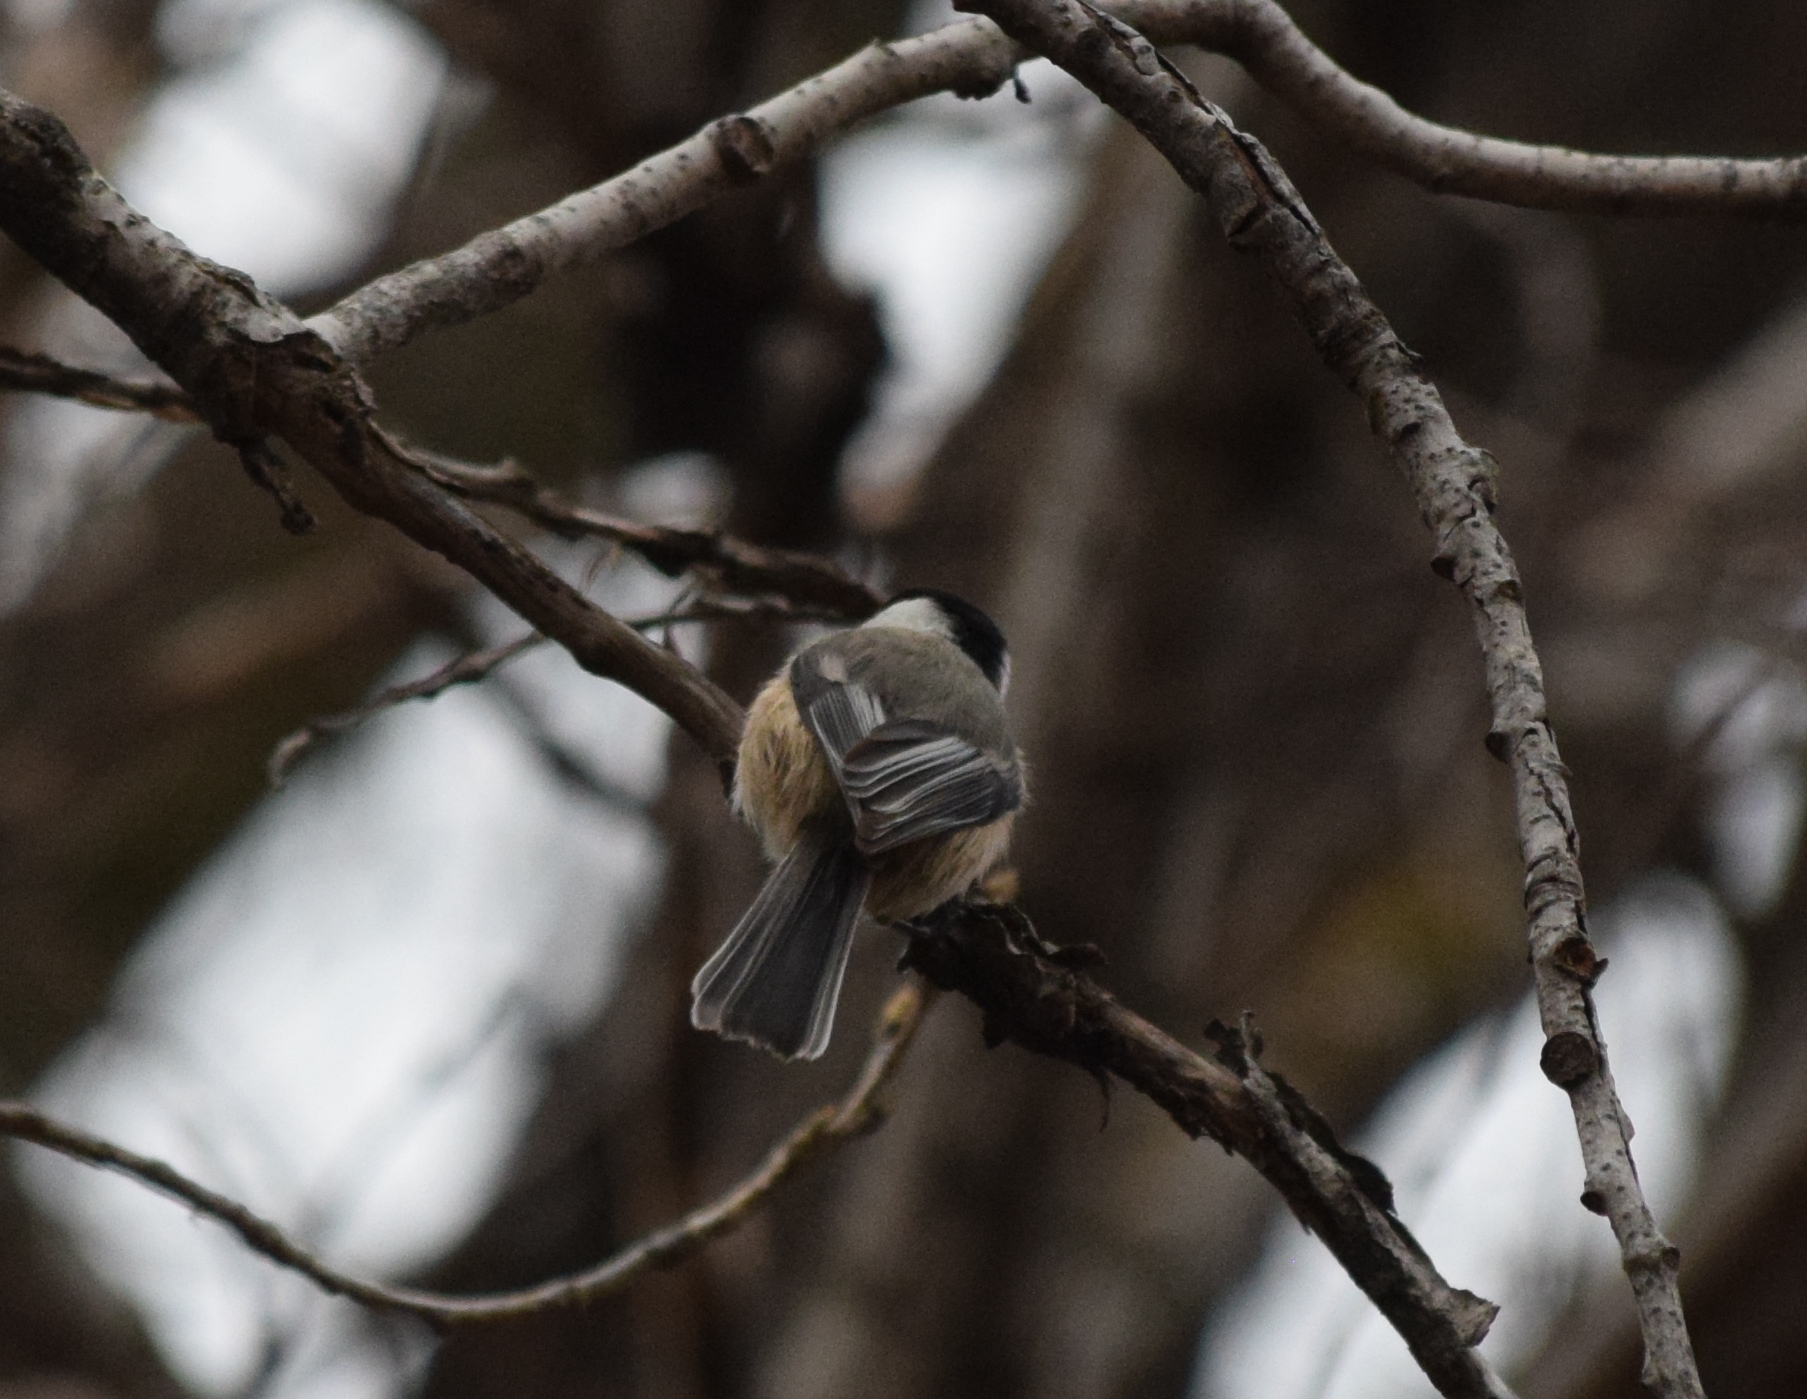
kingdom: Animalia
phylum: Chordata
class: Aves
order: Passeriformes
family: Paridae
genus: Poecile
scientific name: Poecile atricapillus
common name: Black-capped chickadee
